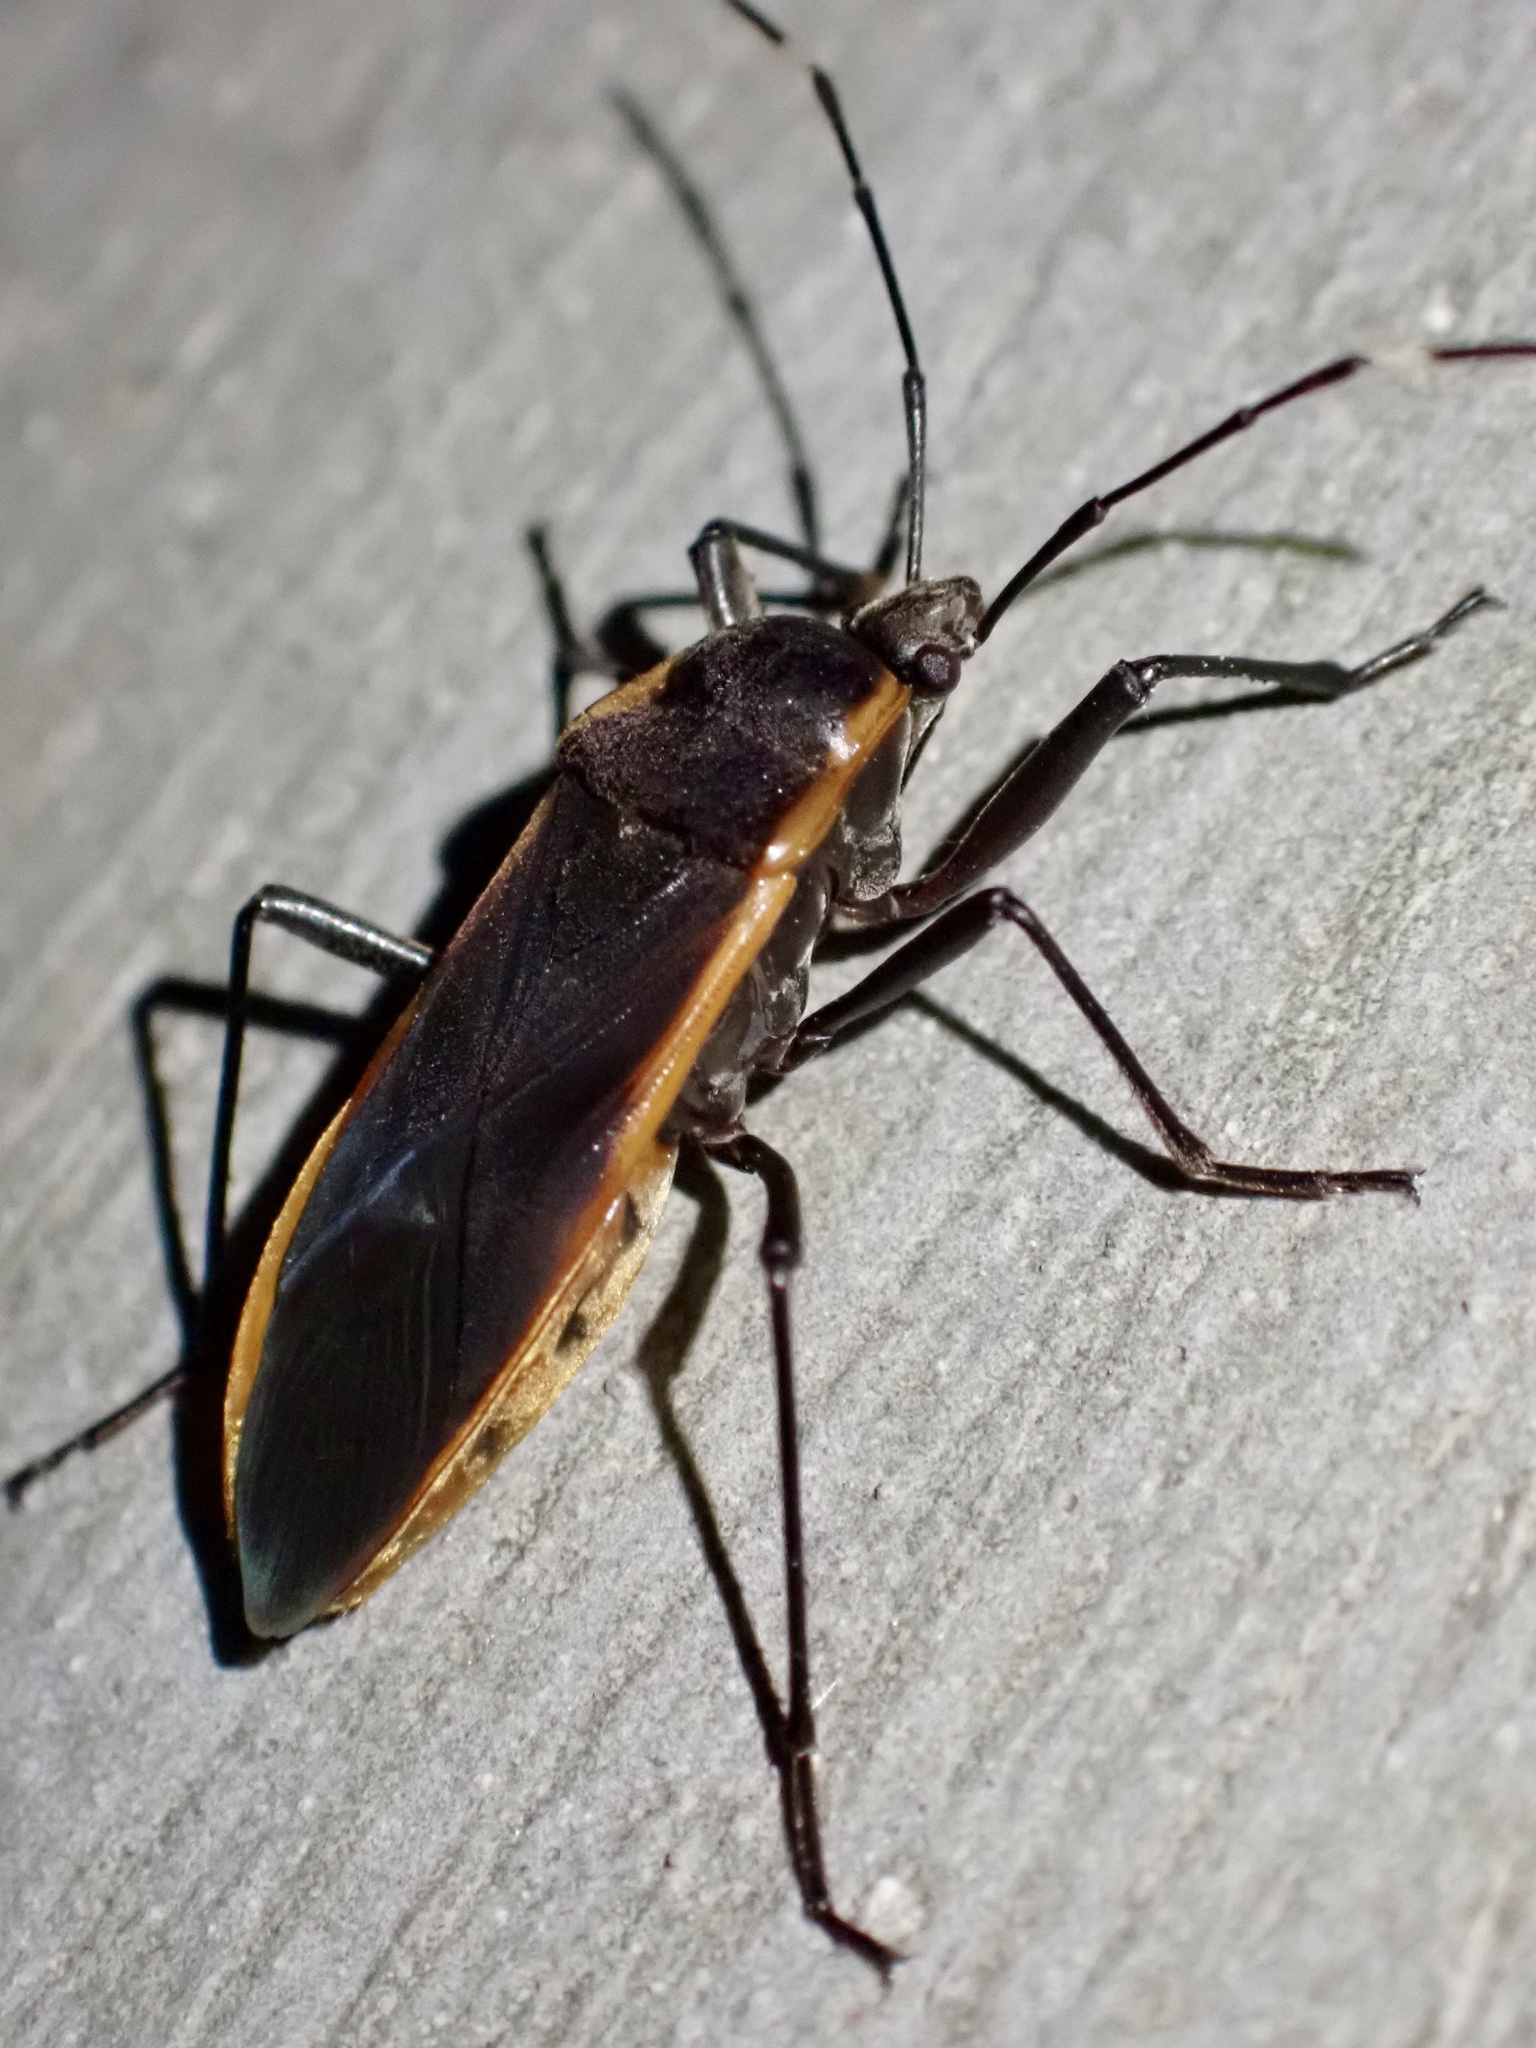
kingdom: Animalia
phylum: Arthropoda
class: Insecta
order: Hemiptera
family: Largidae
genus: Physopelta
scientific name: Physopelta finisterrae
